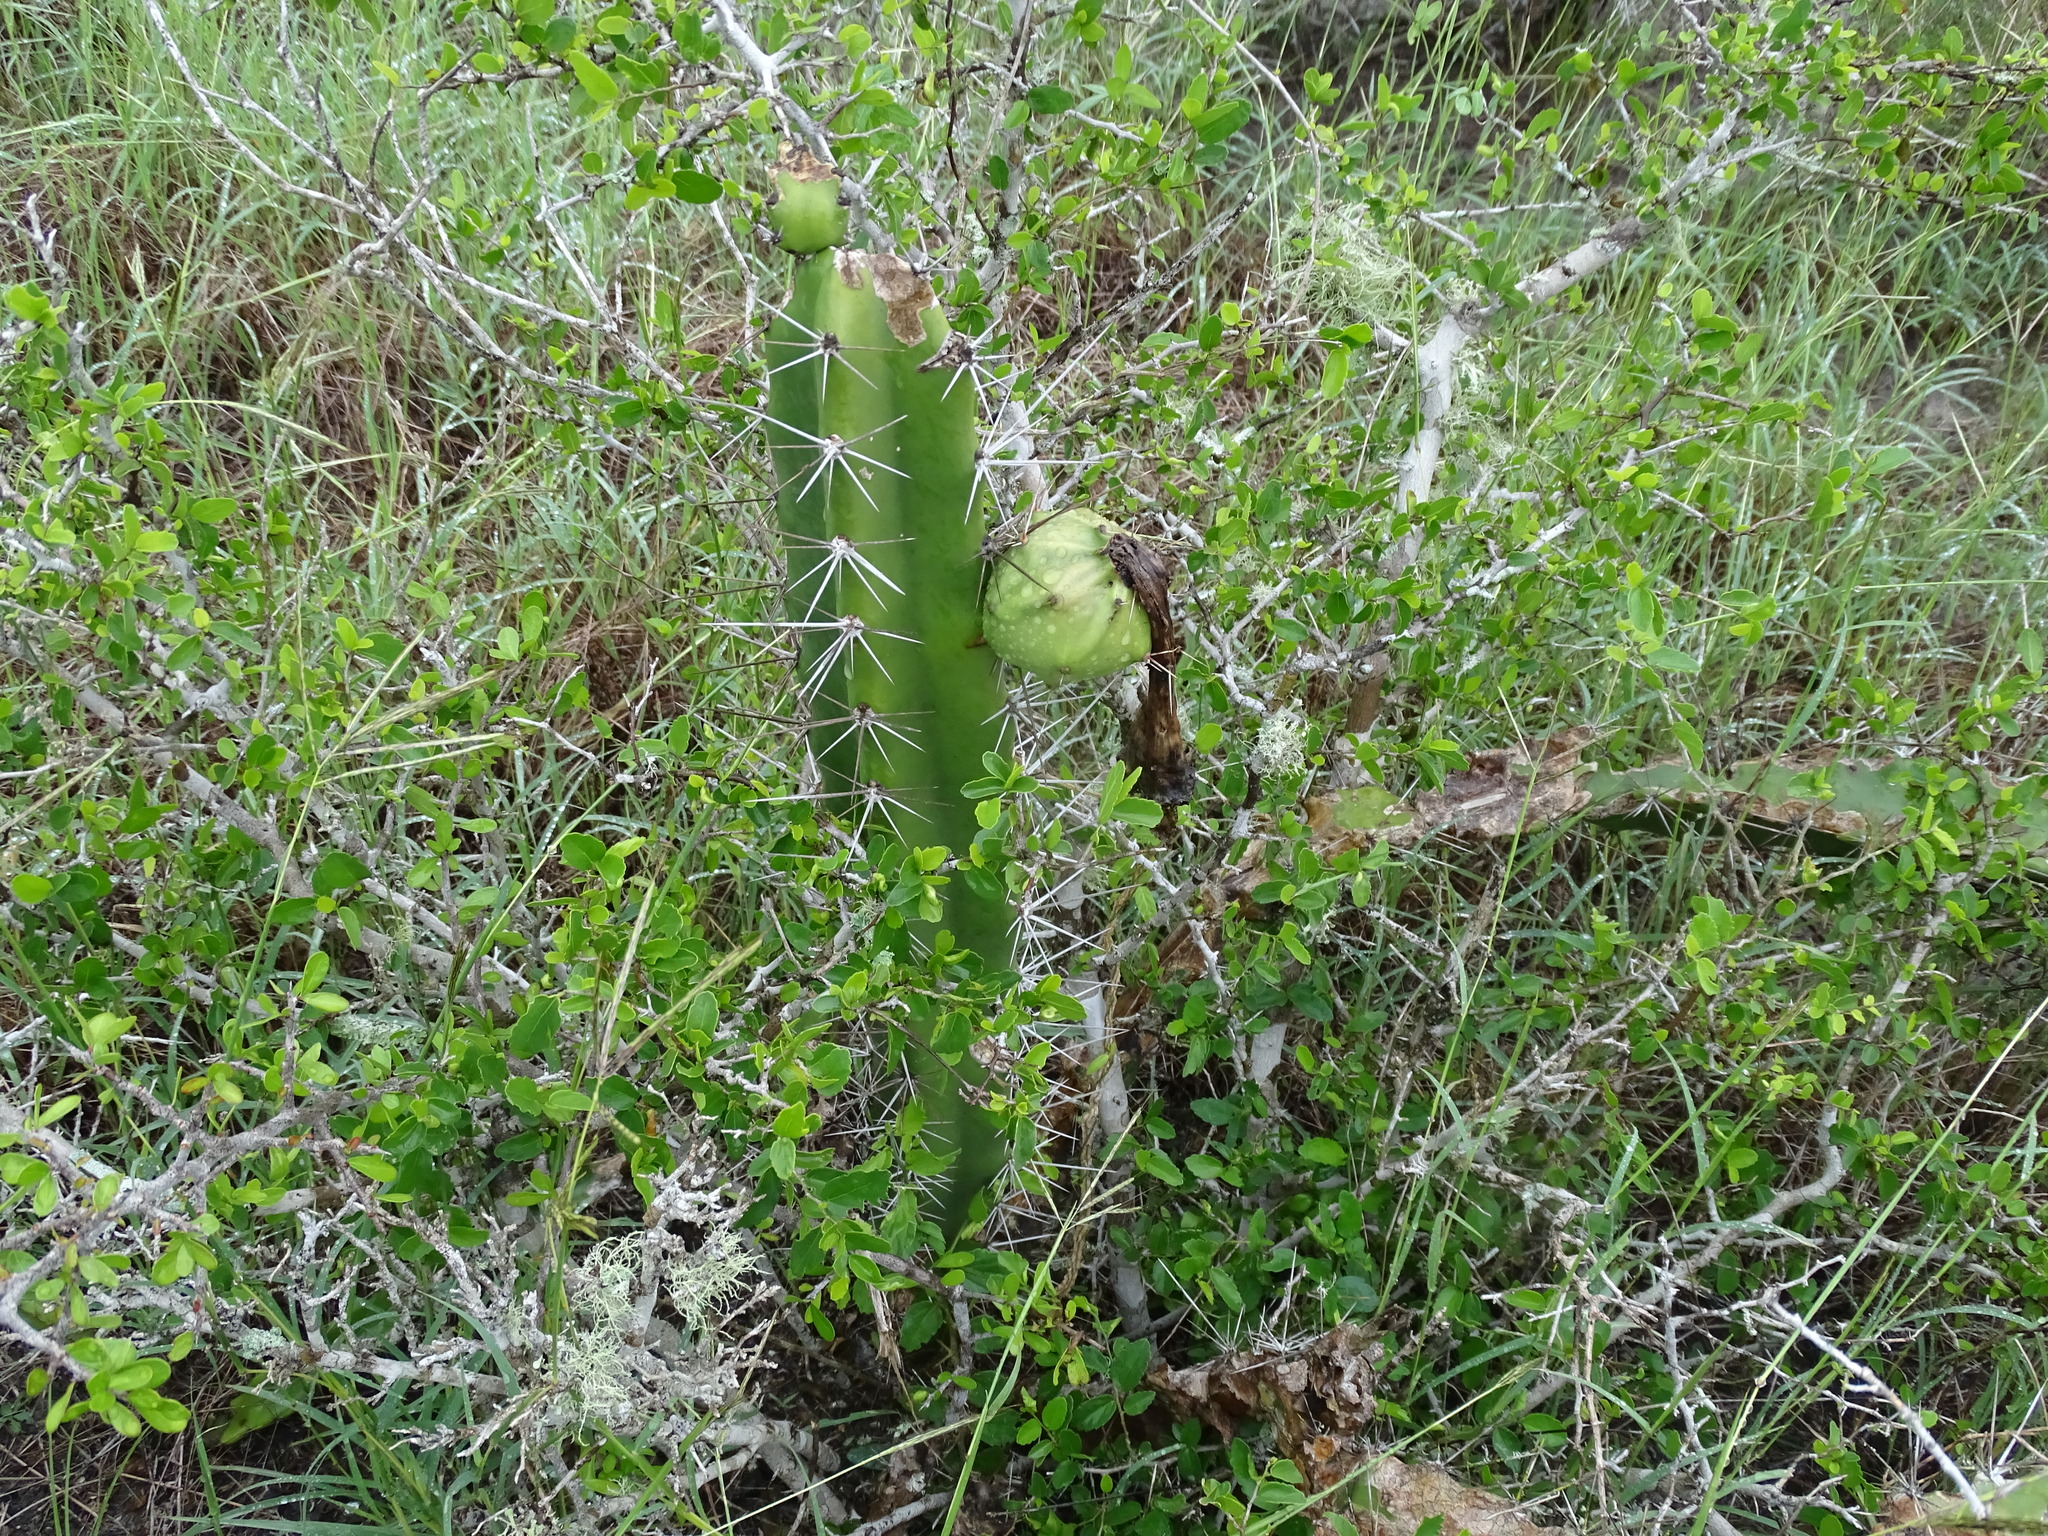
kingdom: Plantae
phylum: Tracheophyta
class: Magnoliopsida
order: Caryophyllales
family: Cactaceae
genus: Acanthocereus
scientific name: Acanthocereus tetragonus
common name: Triangle cactus
